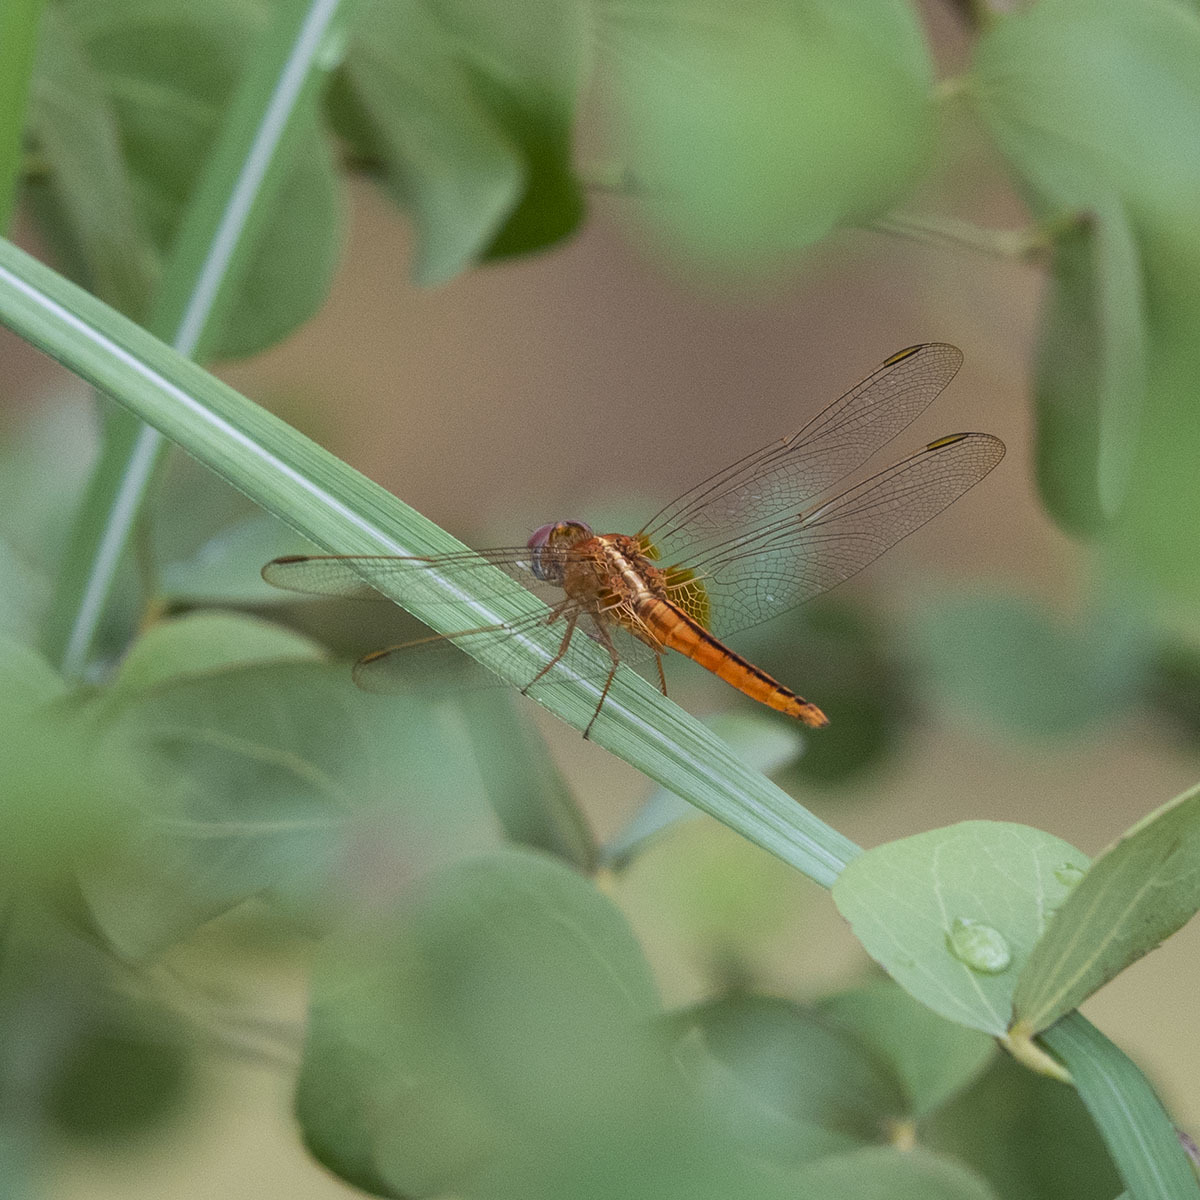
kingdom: Animalia
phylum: Arthropoda
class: Insecta
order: Odonata
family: Libellulidae
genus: Crocothemis
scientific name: Crocothemis servilia
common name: Scarlet skimmer
